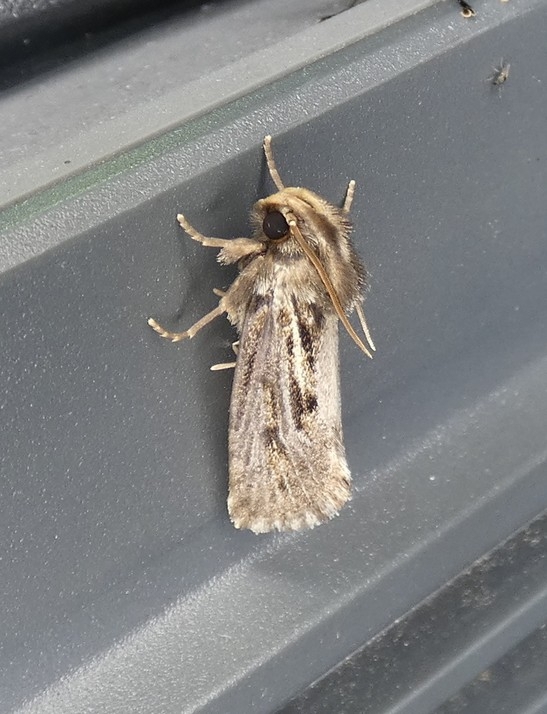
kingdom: Animalia
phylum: Arthropoda
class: Insecta
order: Lepidoptera
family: Tineidae
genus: Acrolophus
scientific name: Acrolophus popeanella
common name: Clemens' grass tubeworm moth
